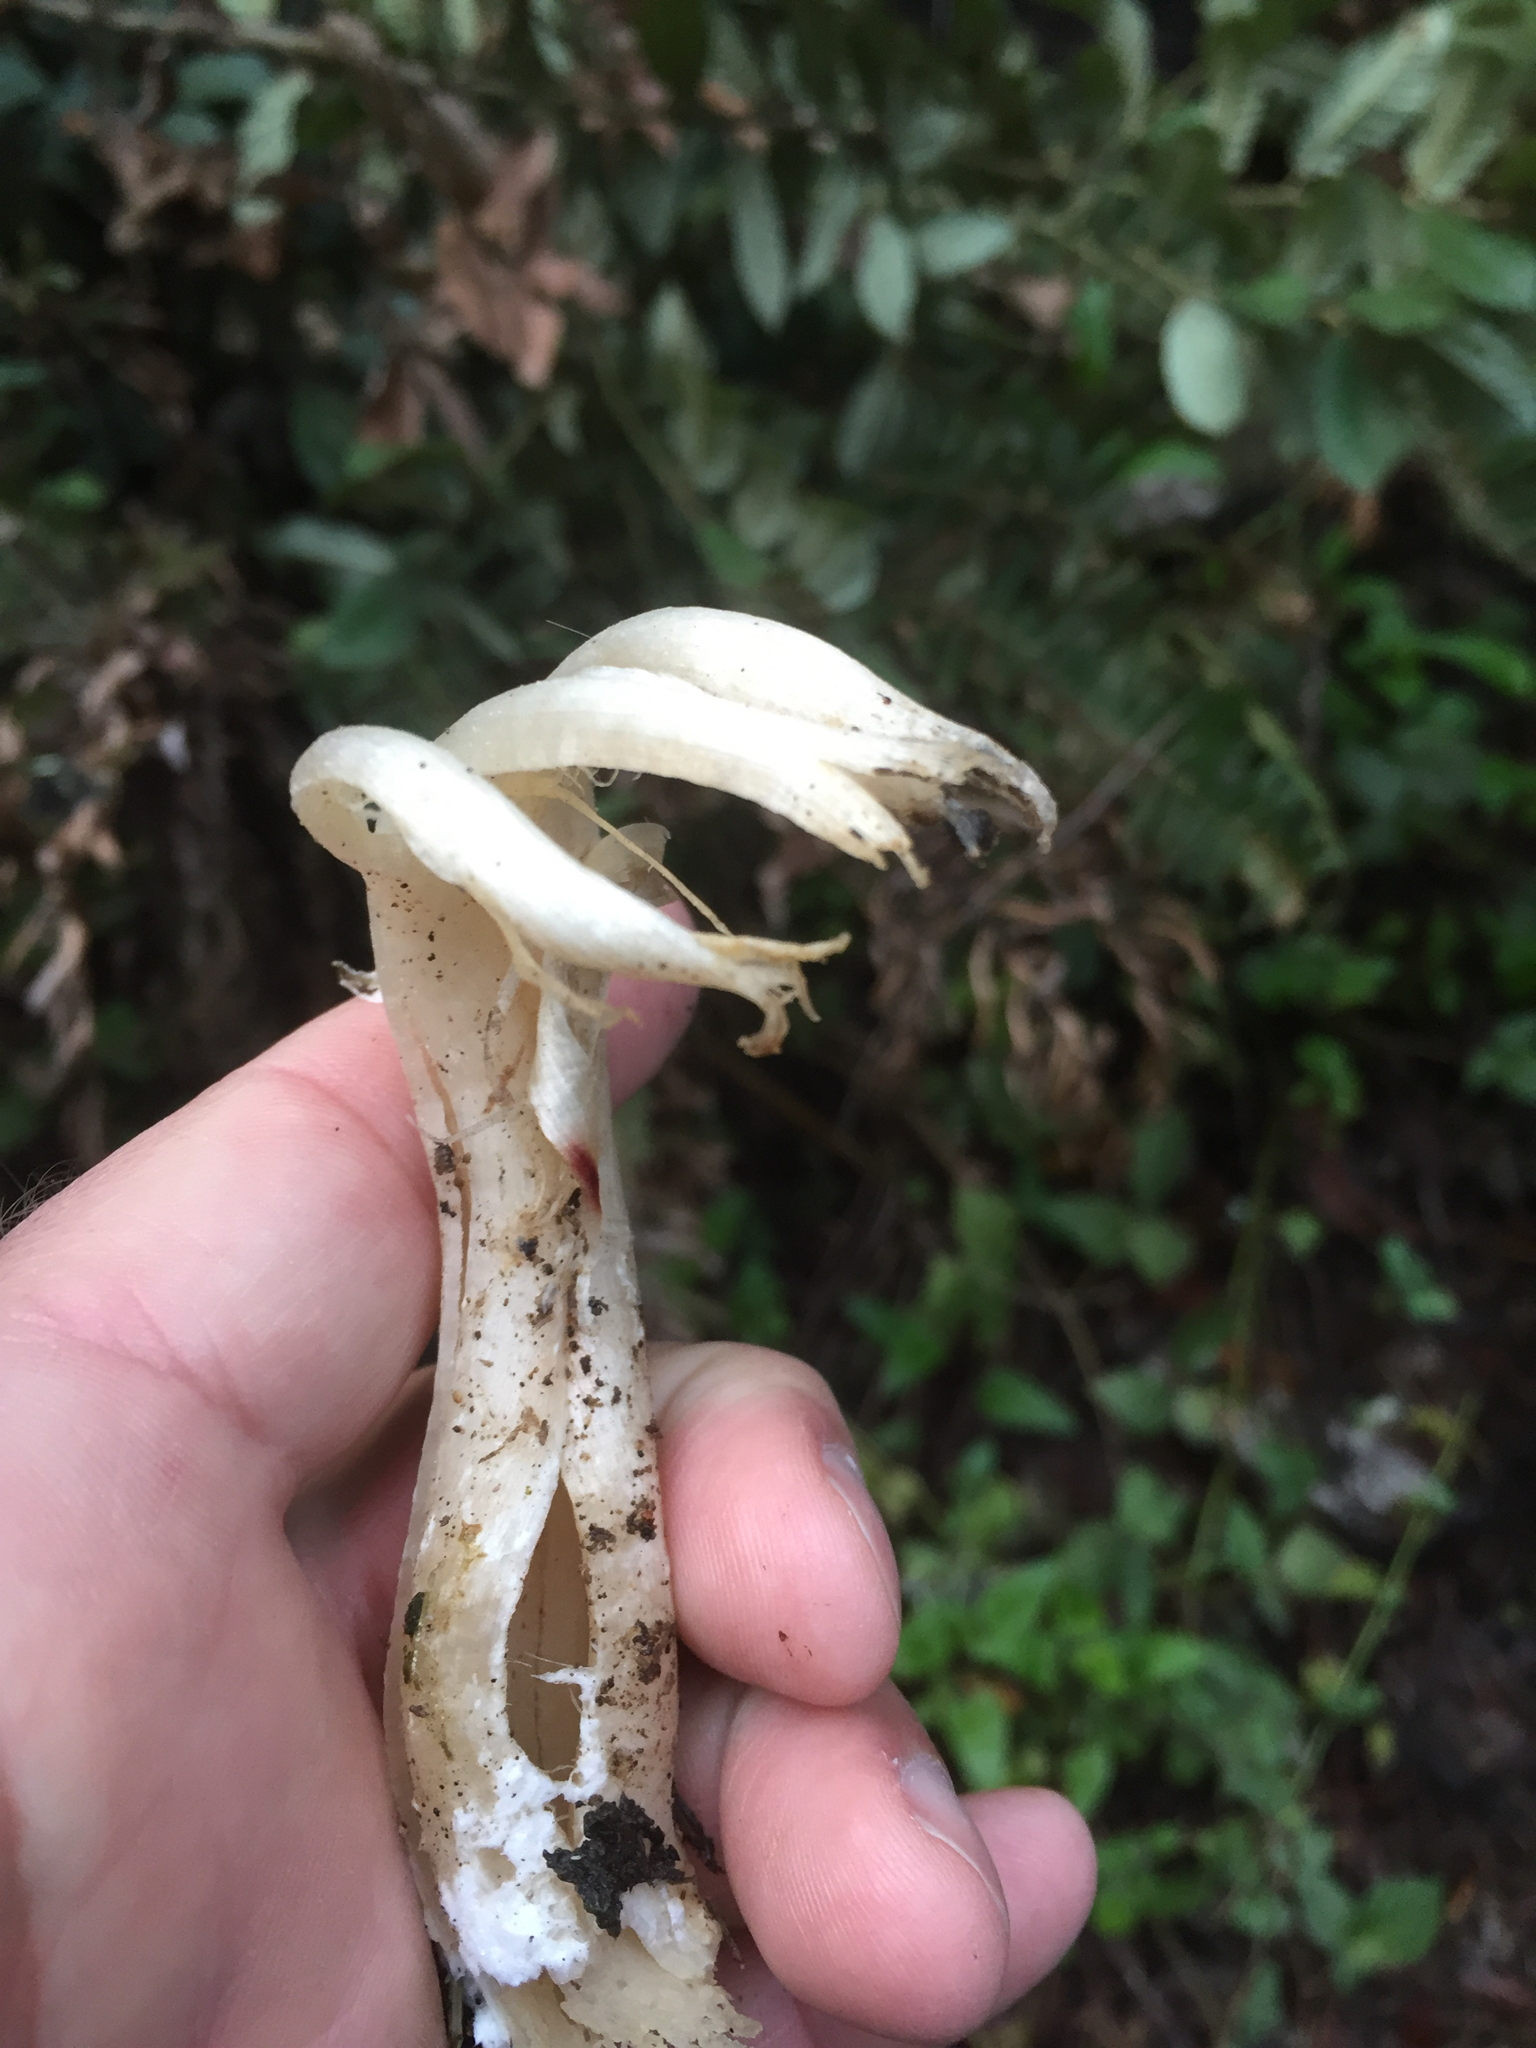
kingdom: Fungi
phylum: Basidiomycota
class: Agaricomycetes
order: Cantharellales
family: Hydnaceae
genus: Clavulina
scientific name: Clavulina coralloides
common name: Crested coral
